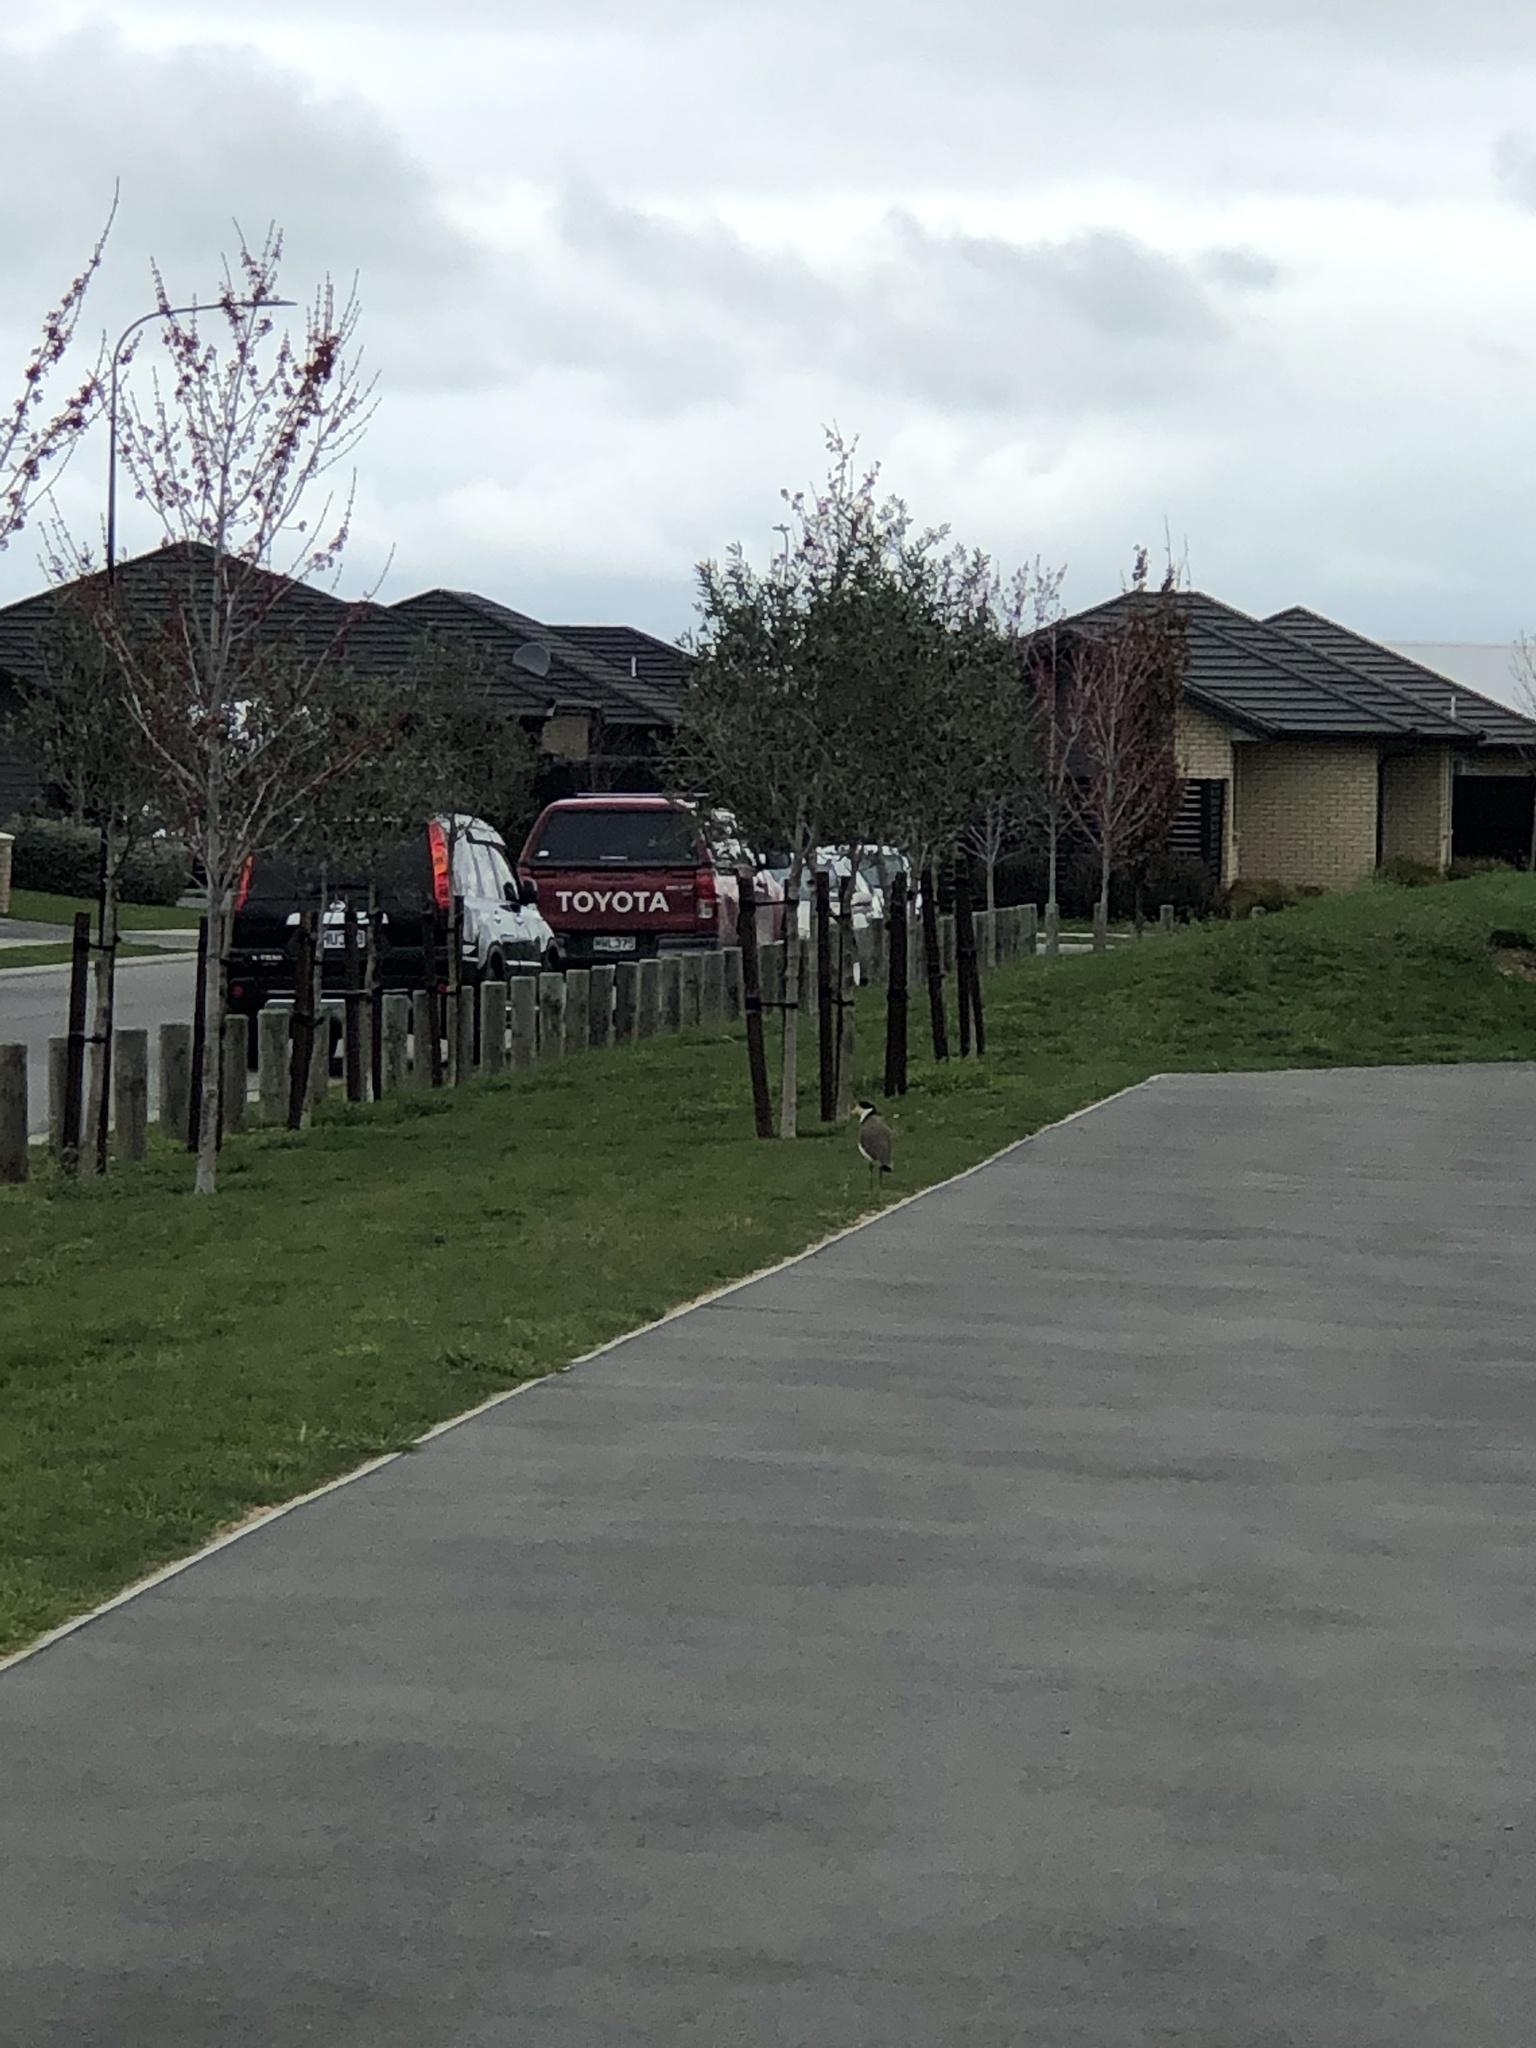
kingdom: Animalia
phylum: Chordata
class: Aves
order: Charadriiformes
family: Charadriidae
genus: Vanellus
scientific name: Vanellus miles
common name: Masked lapwing
